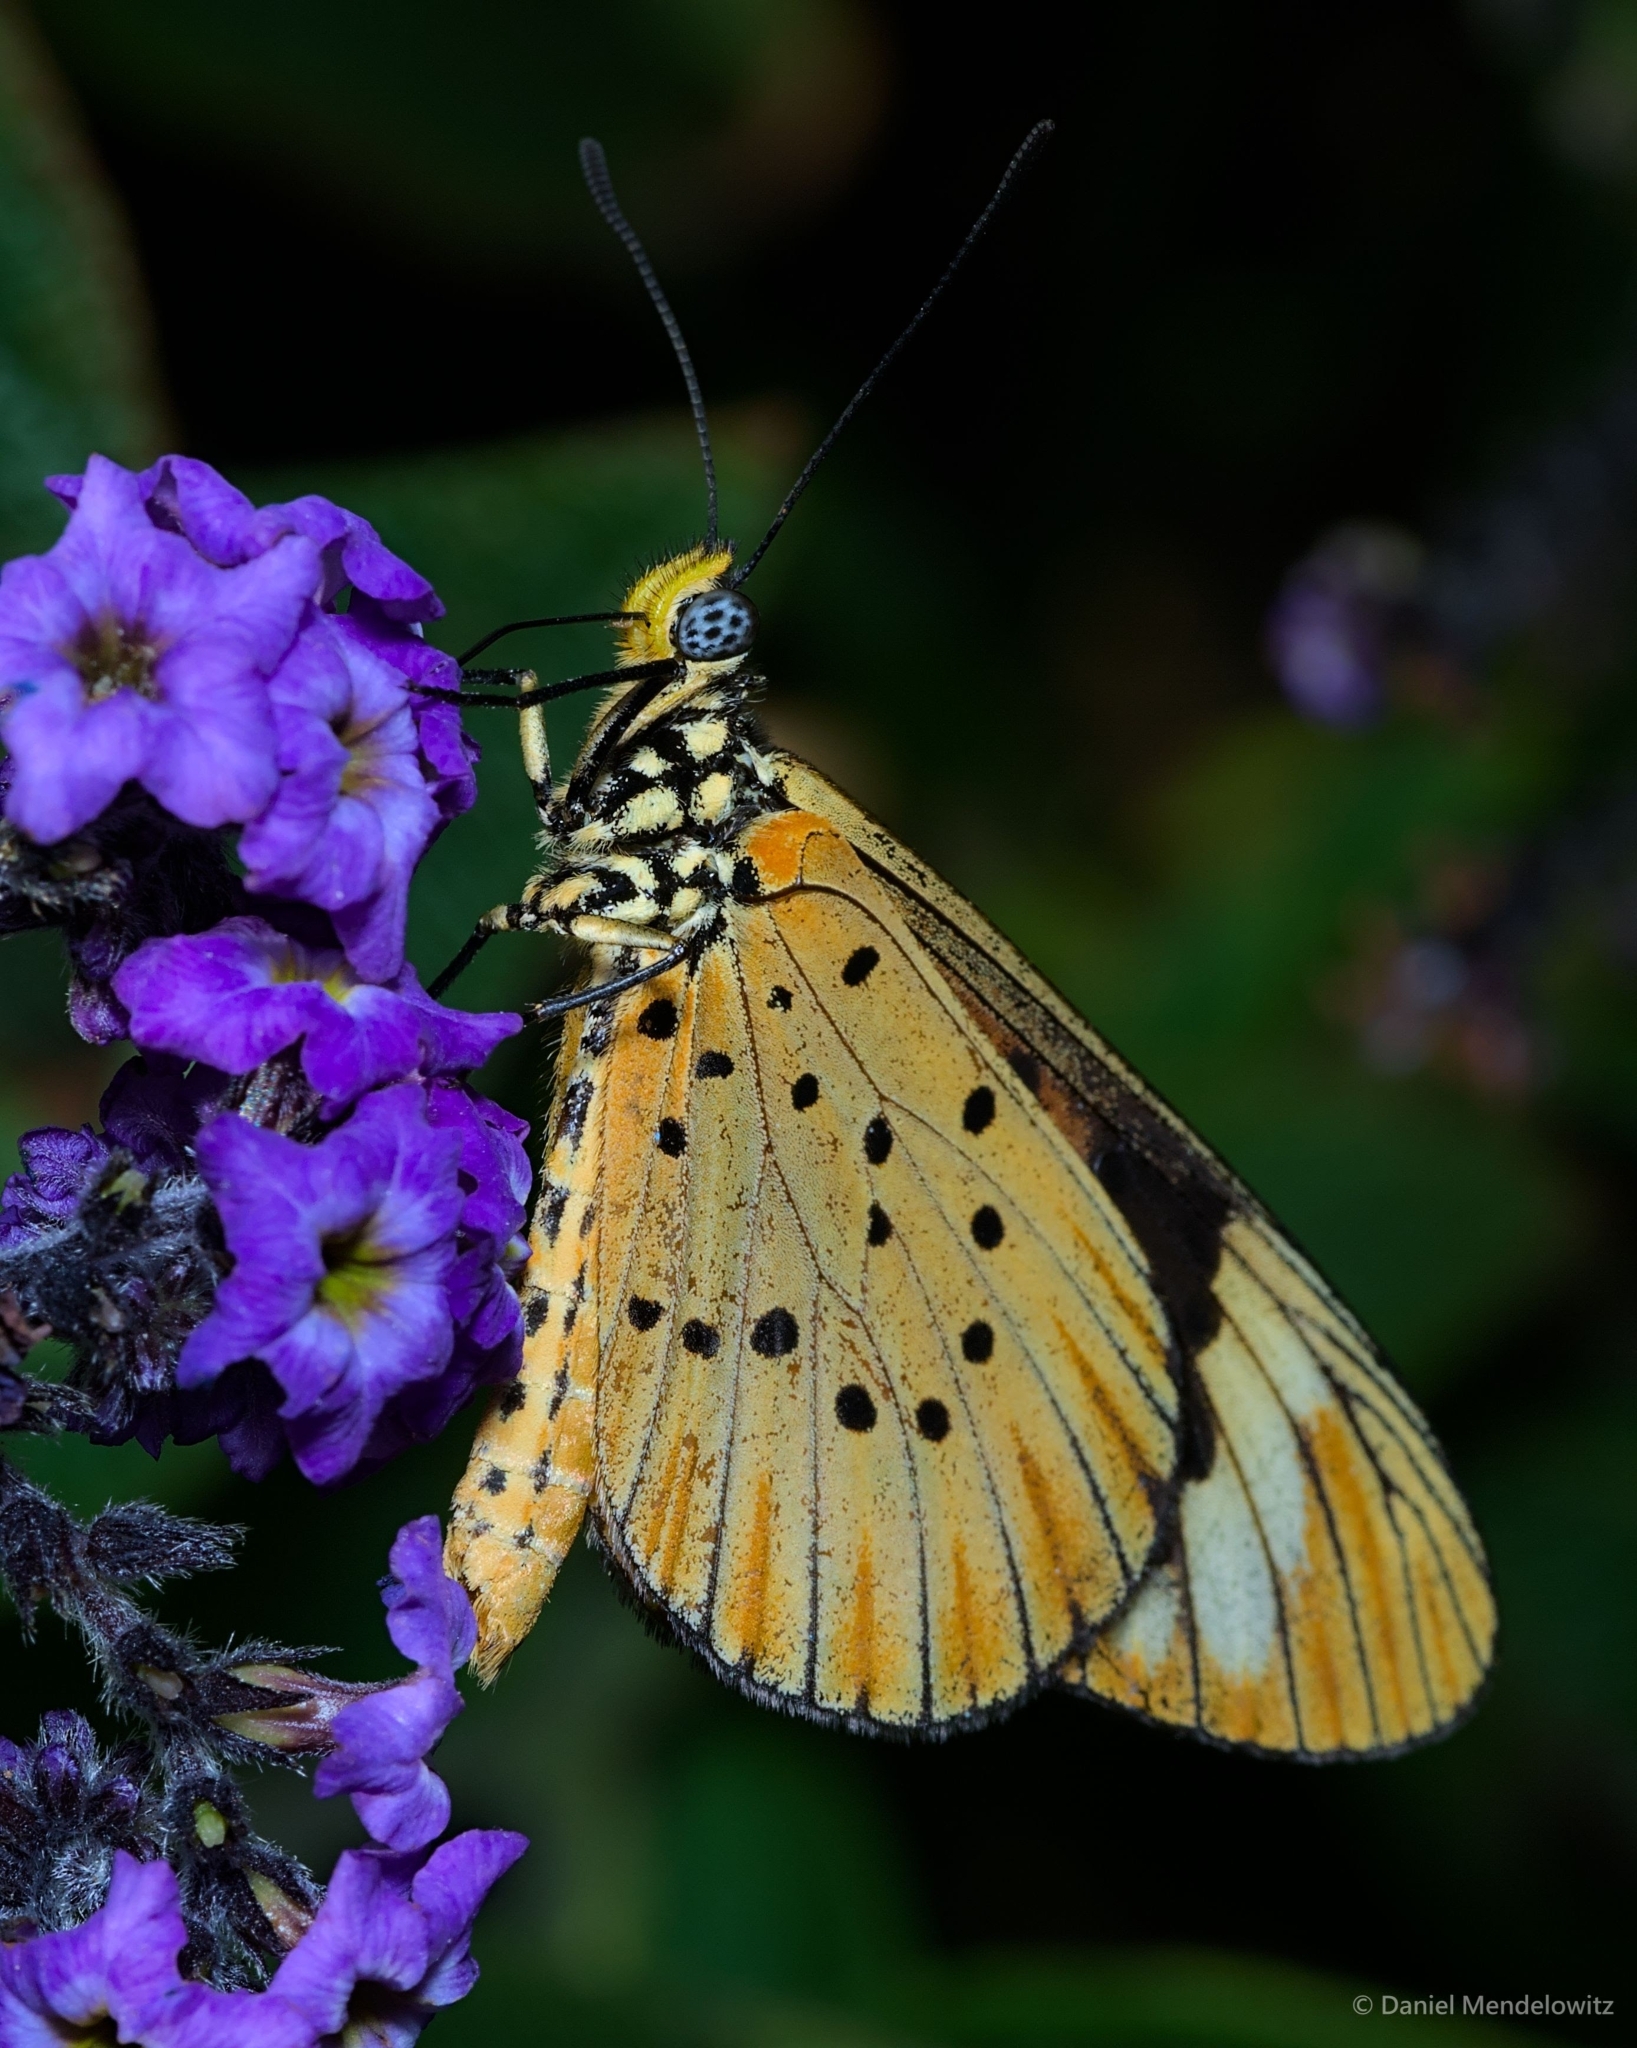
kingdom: Animalia
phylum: Arthropoda
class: Insecta
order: Lepidoptera
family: Nymphalidae
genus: Acraea
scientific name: Acraea Telchinia encedon
